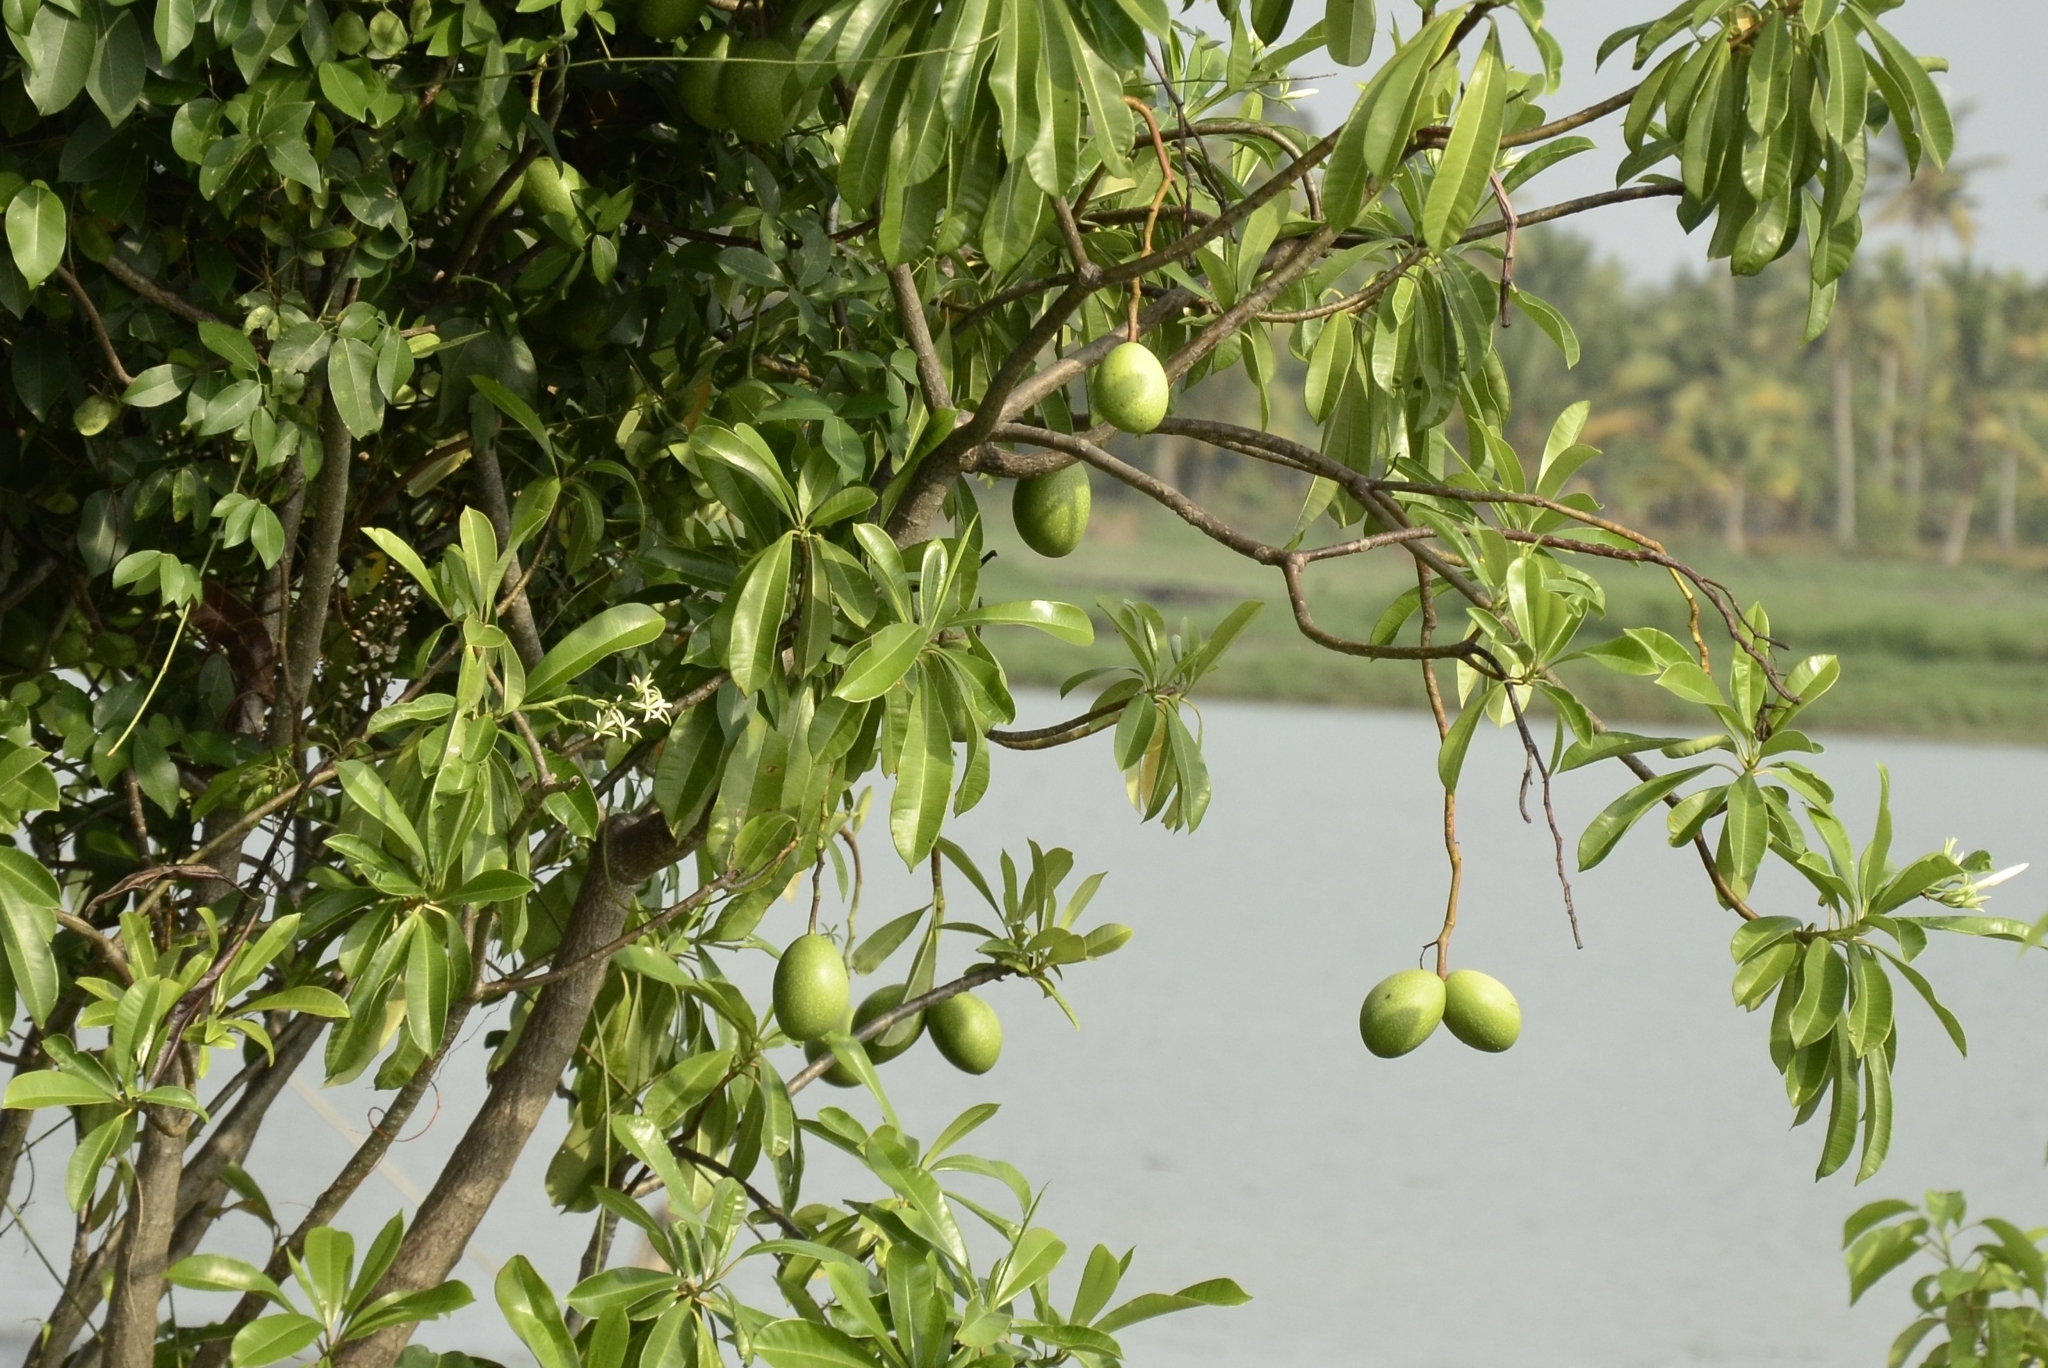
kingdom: Plantae
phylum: Tracheophyta
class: Magnoliopsida
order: Gentianales
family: Apocynaceae
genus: Cerbera
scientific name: Cerbera odollam
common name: Pong-pong
